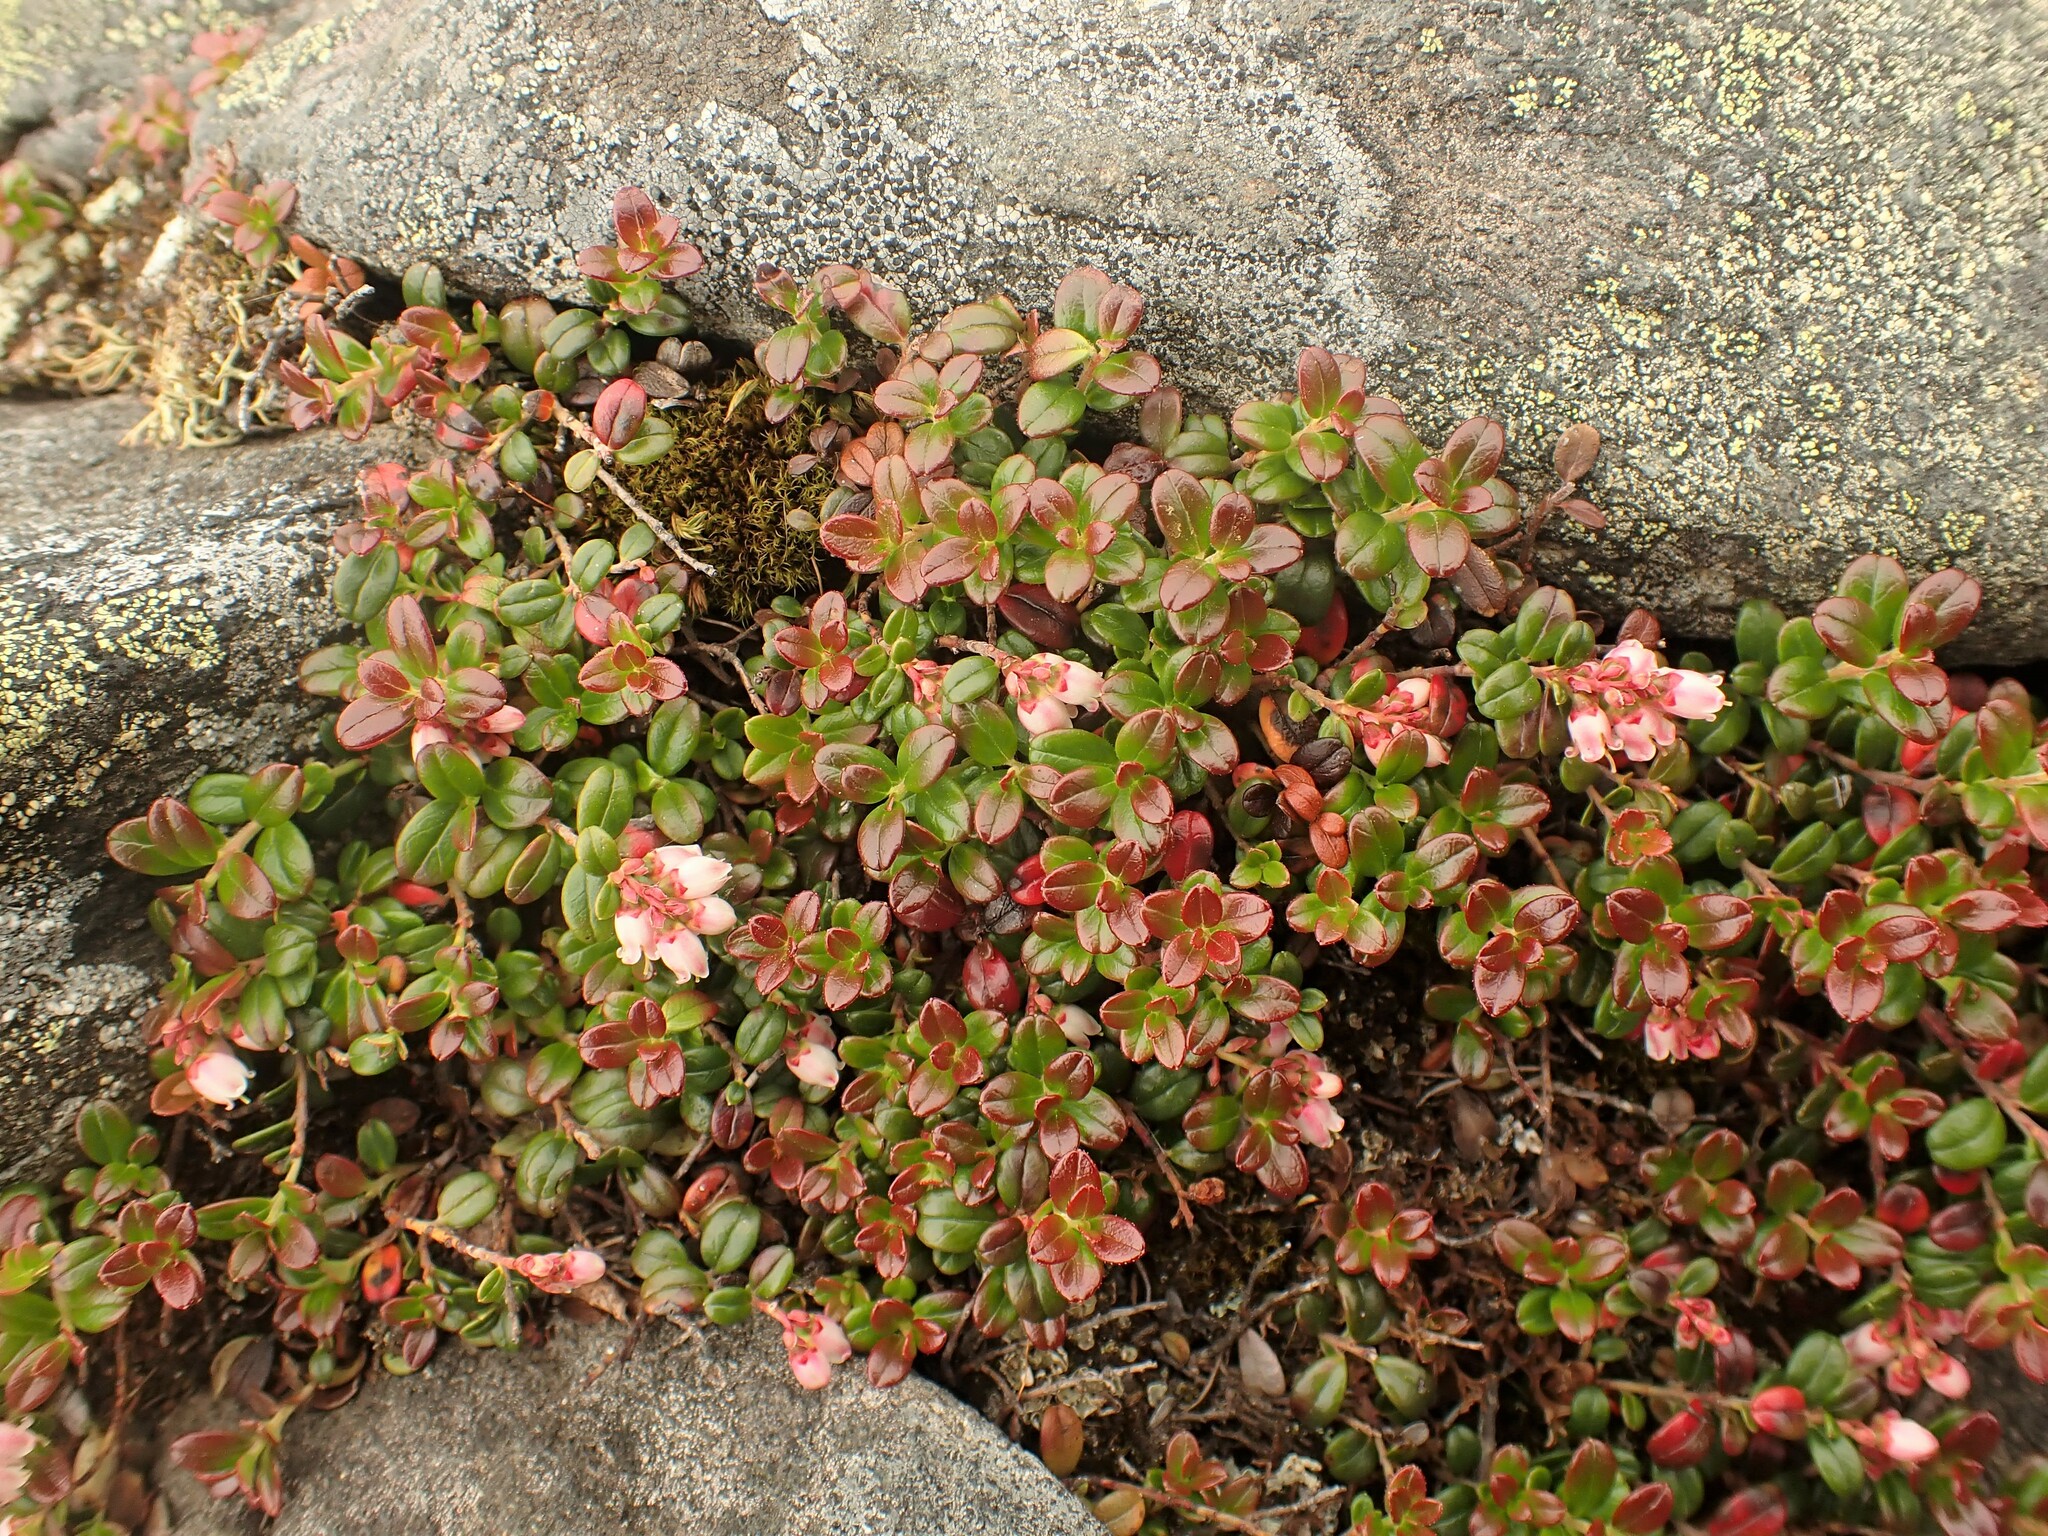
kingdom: Plantae
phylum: Tracheophyta
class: Magnoliopsida
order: Ericales
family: Ericaceae
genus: Vaccinium
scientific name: Vaccinium vitis-idaea
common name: Cowberry
